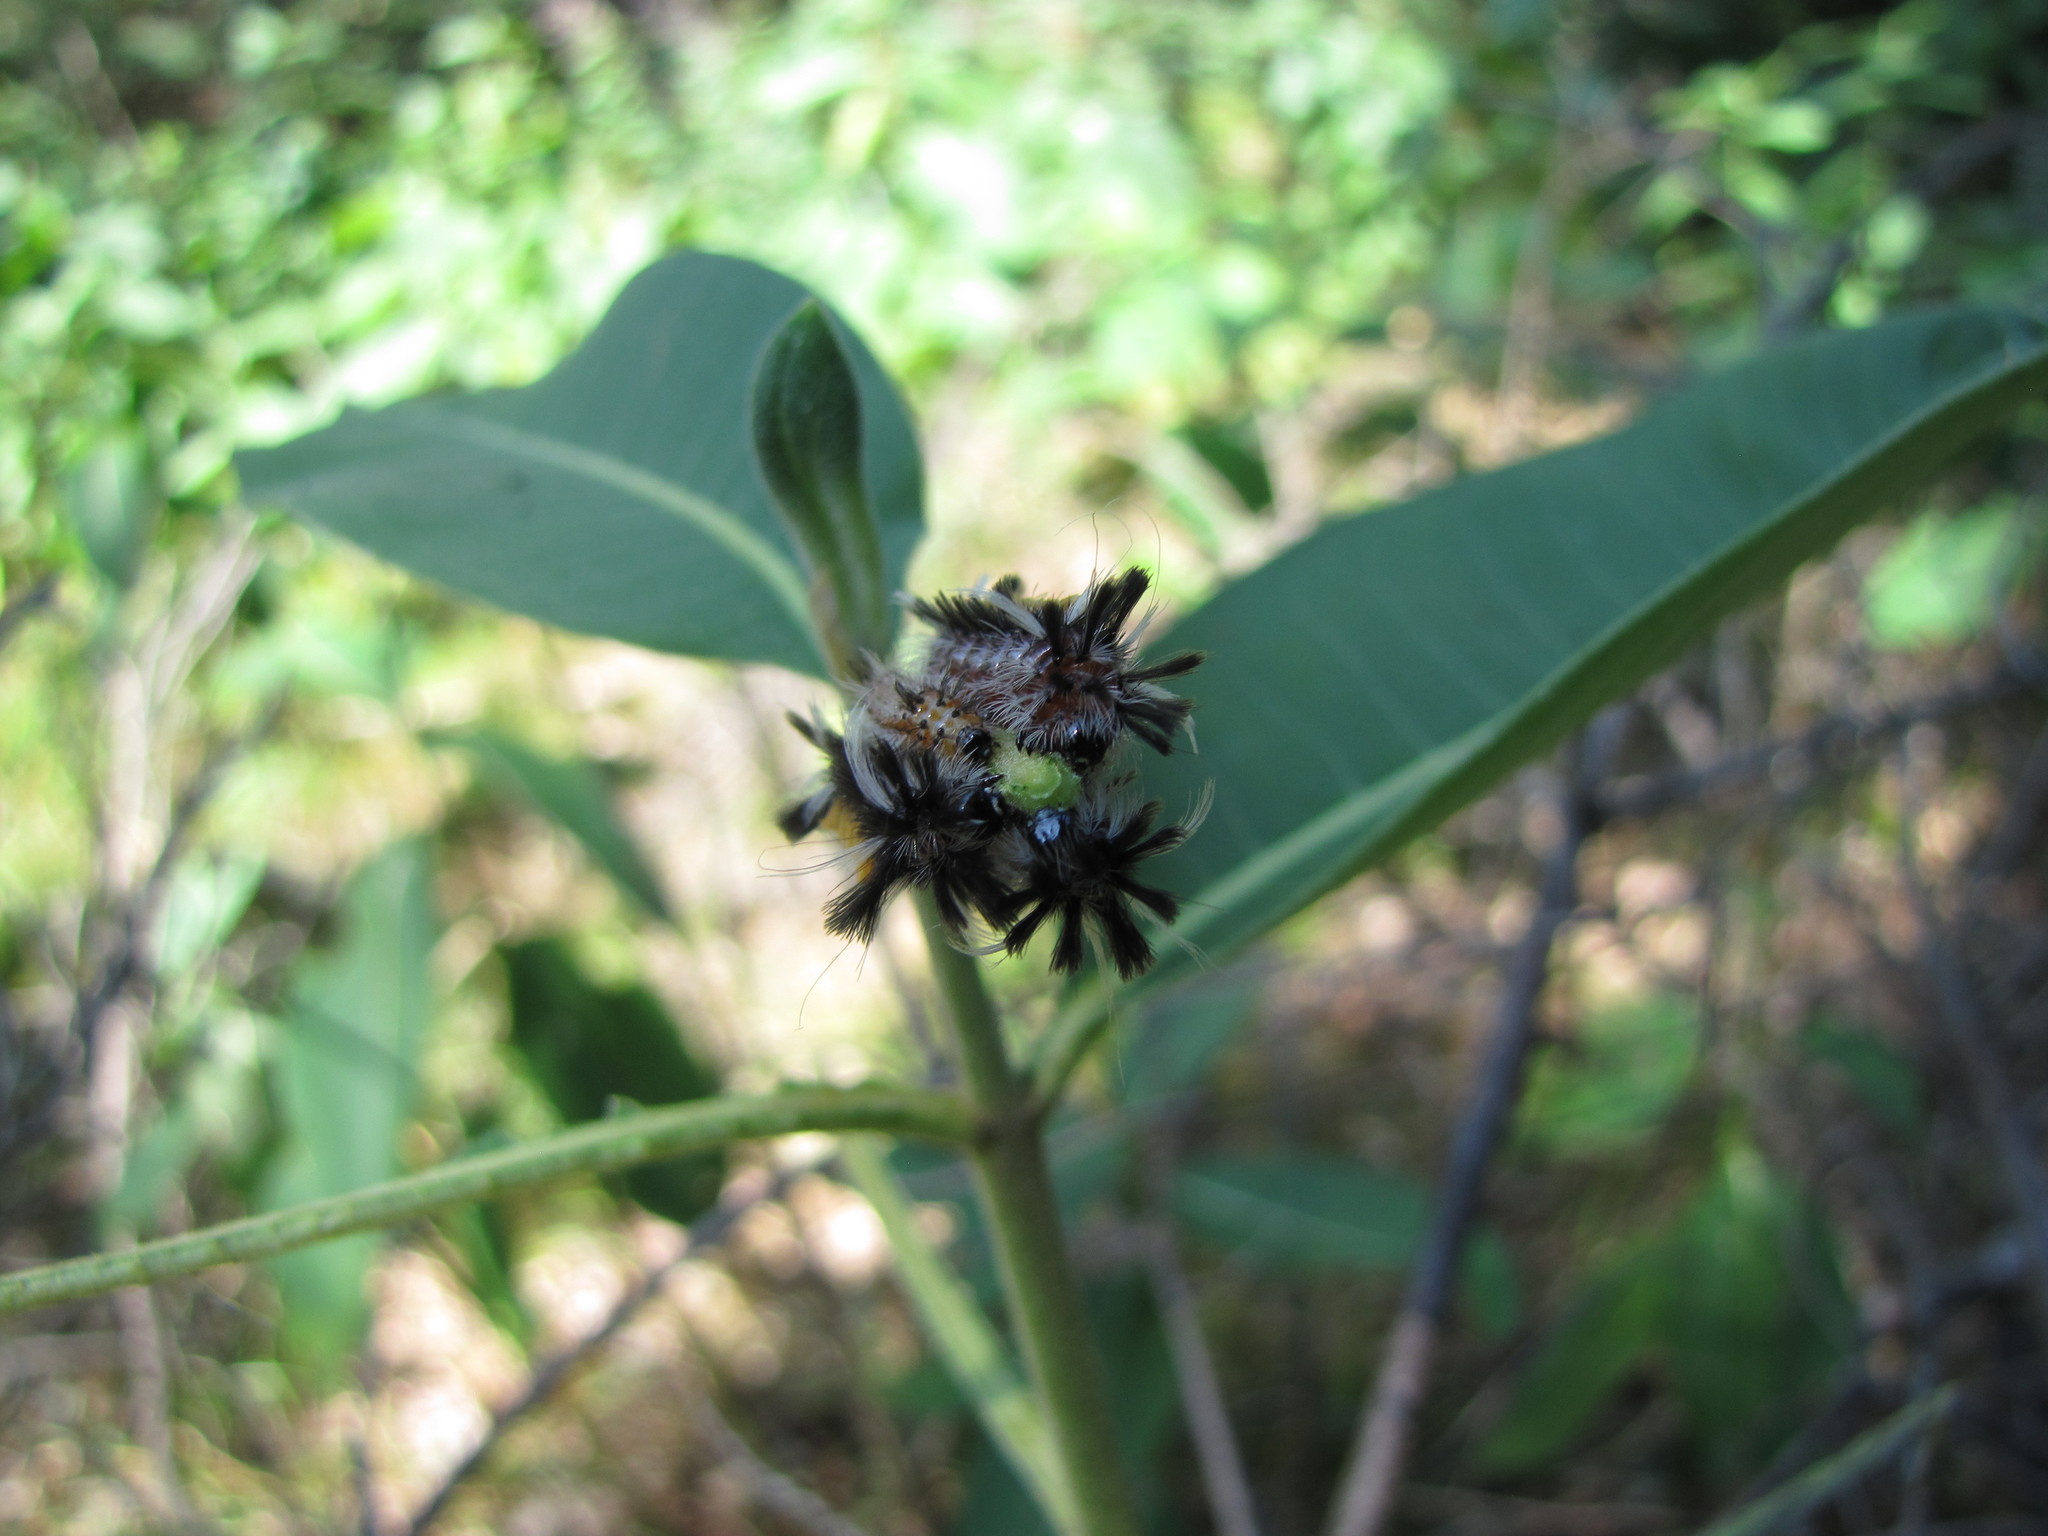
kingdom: Animalia
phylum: Arthropoda
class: Insecta
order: Lepidoptera
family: Erebidae
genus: Euchaetes
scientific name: Euchaetes egle
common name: Milkweed tussock moth
